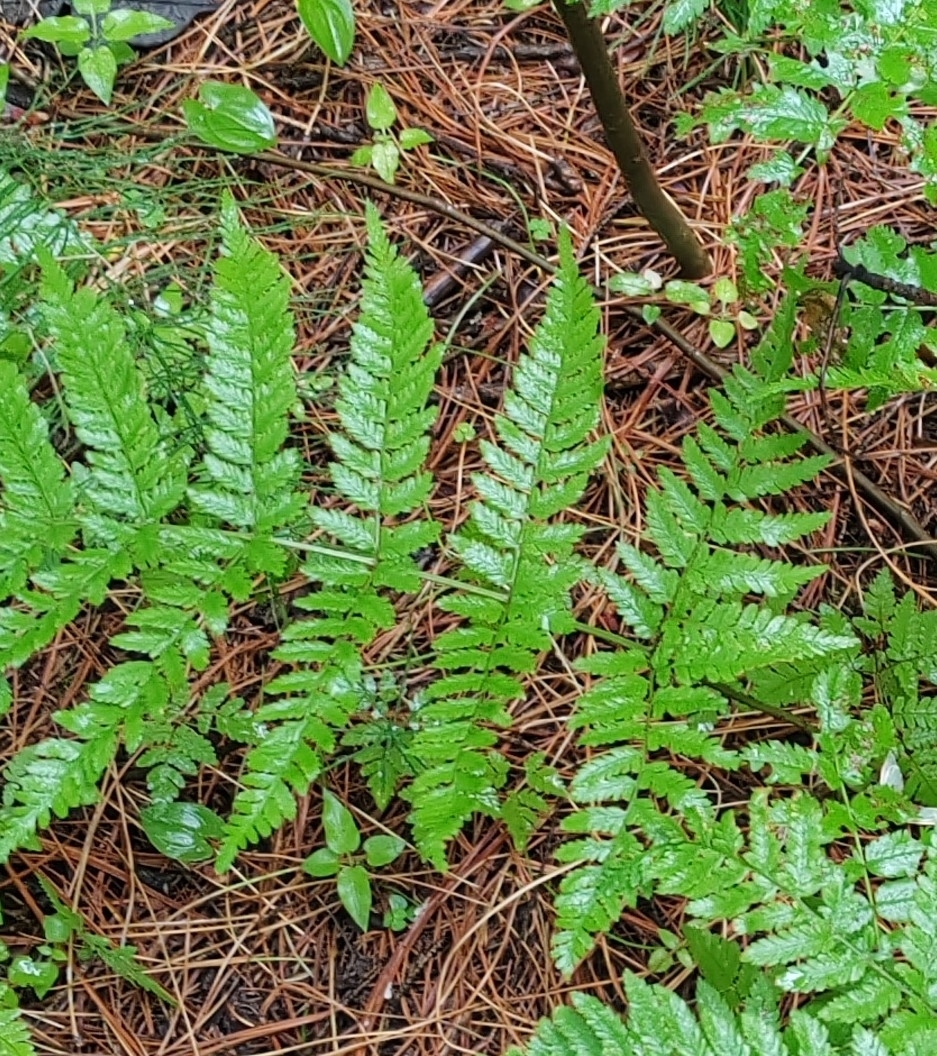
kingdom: Plantae
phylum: Tracheophyta
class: Polypodiopsida
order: Polypodiales
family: Dryopteridaceae
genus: Dryopteris
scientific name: Dryopteris carthusiana
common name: Narrow buckler-fern
